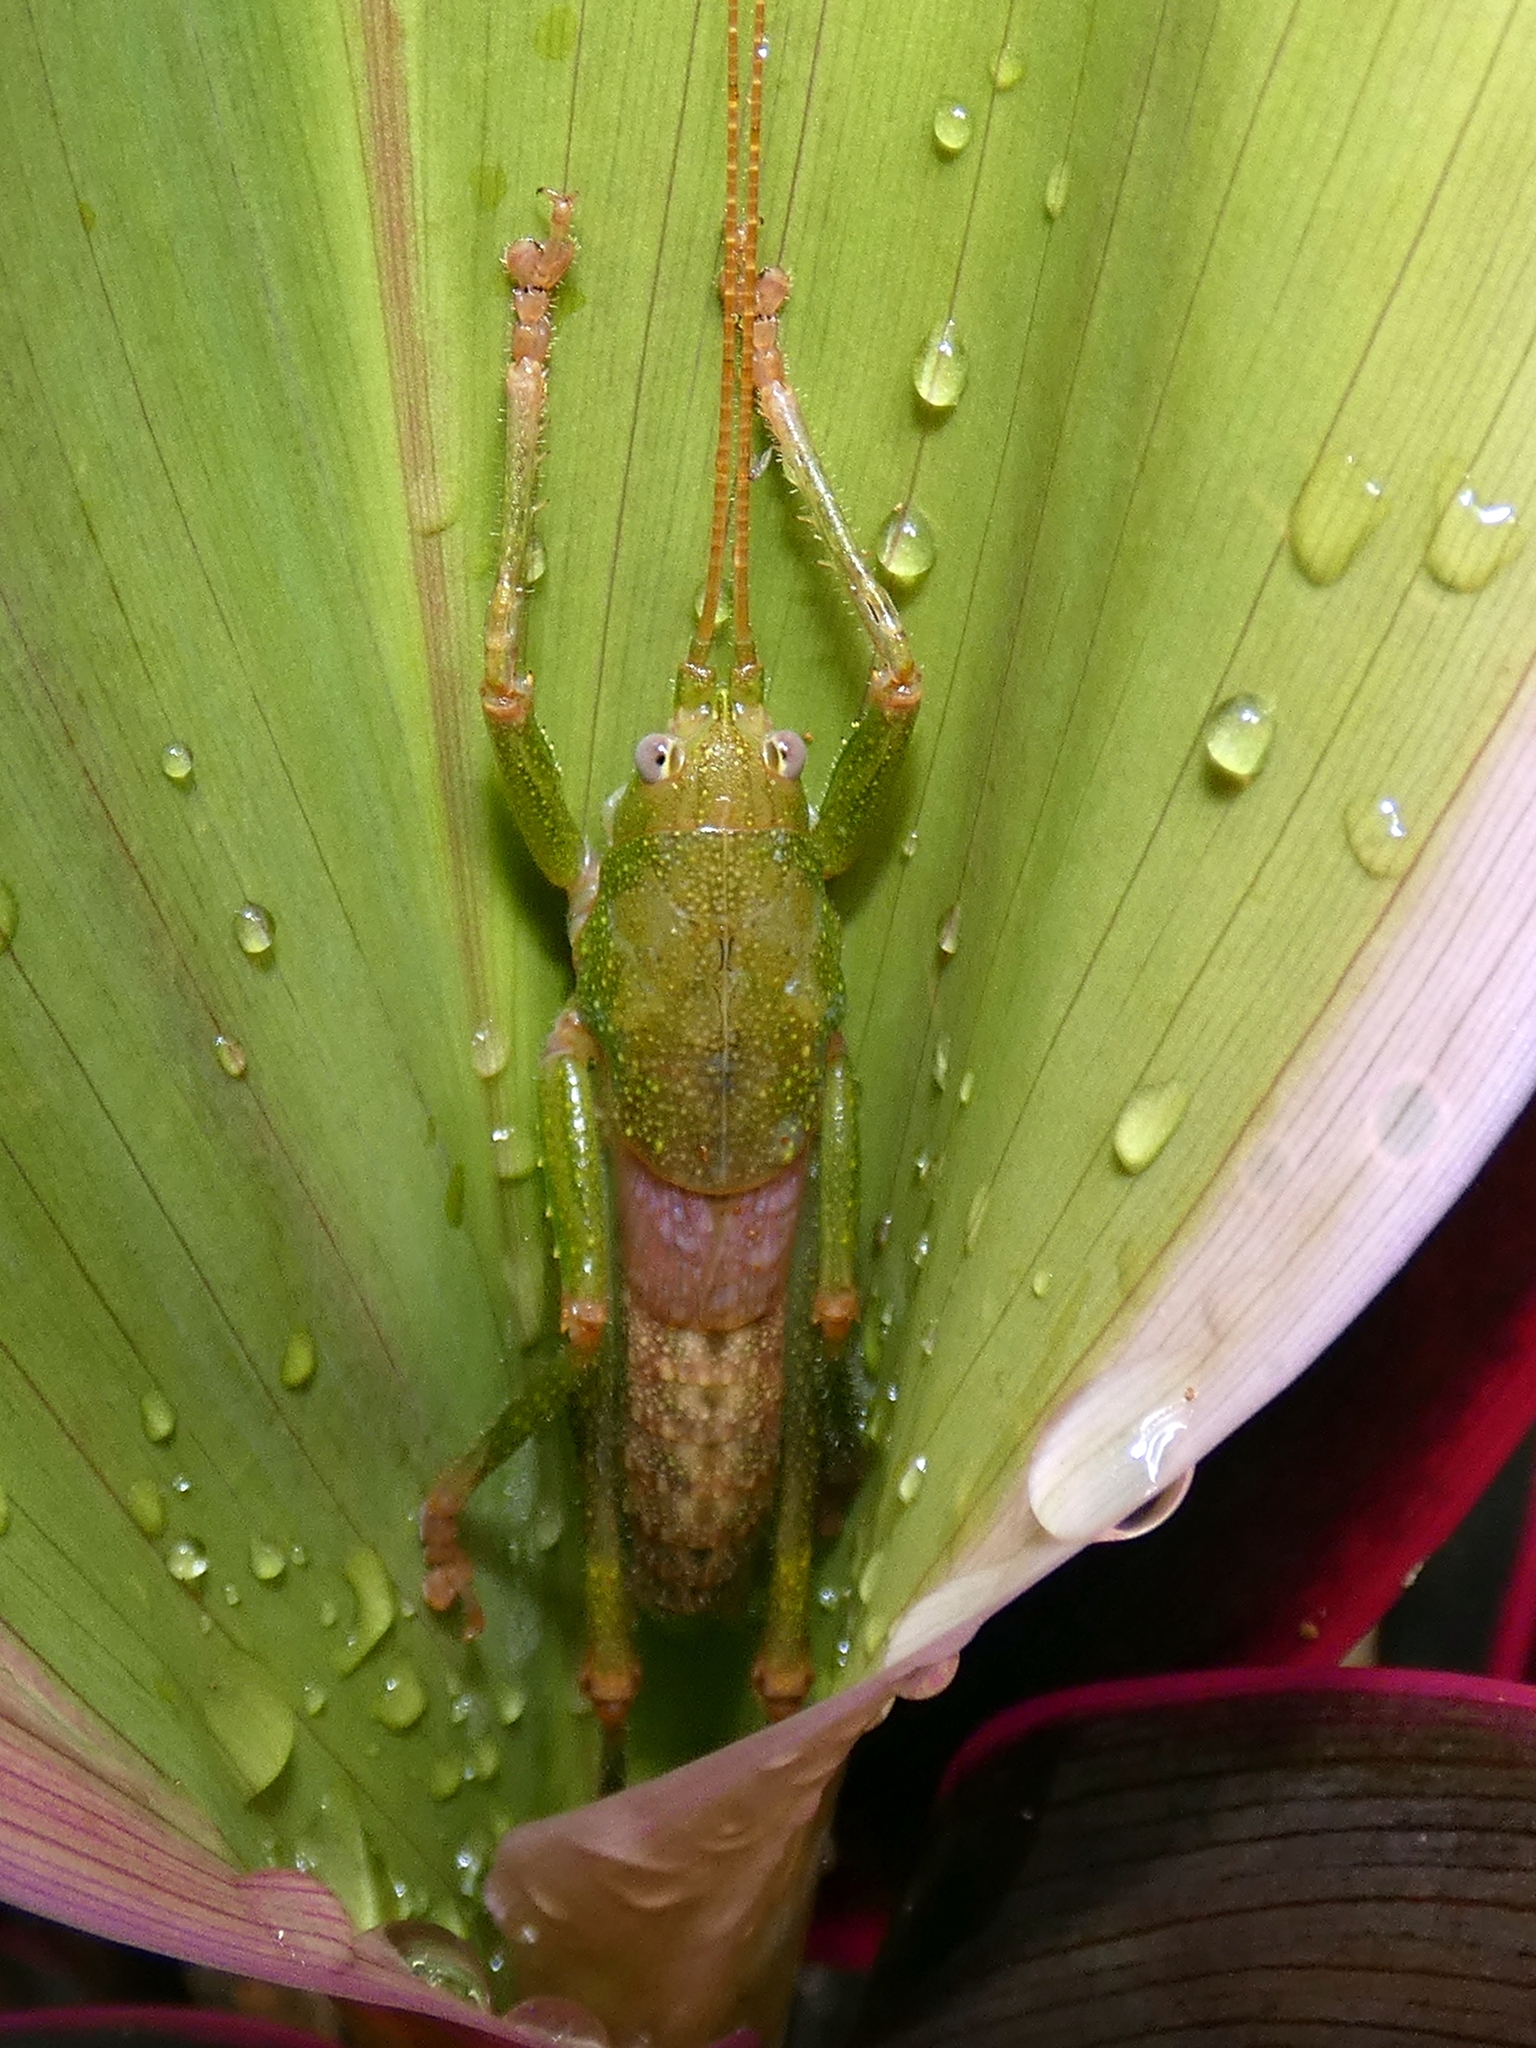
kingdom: Animalia
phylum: Arthropoda
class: Insecta
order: Orthoptera
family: Tettigoniidae
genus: Austrosalomona
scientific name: Austrosalomona destructor
